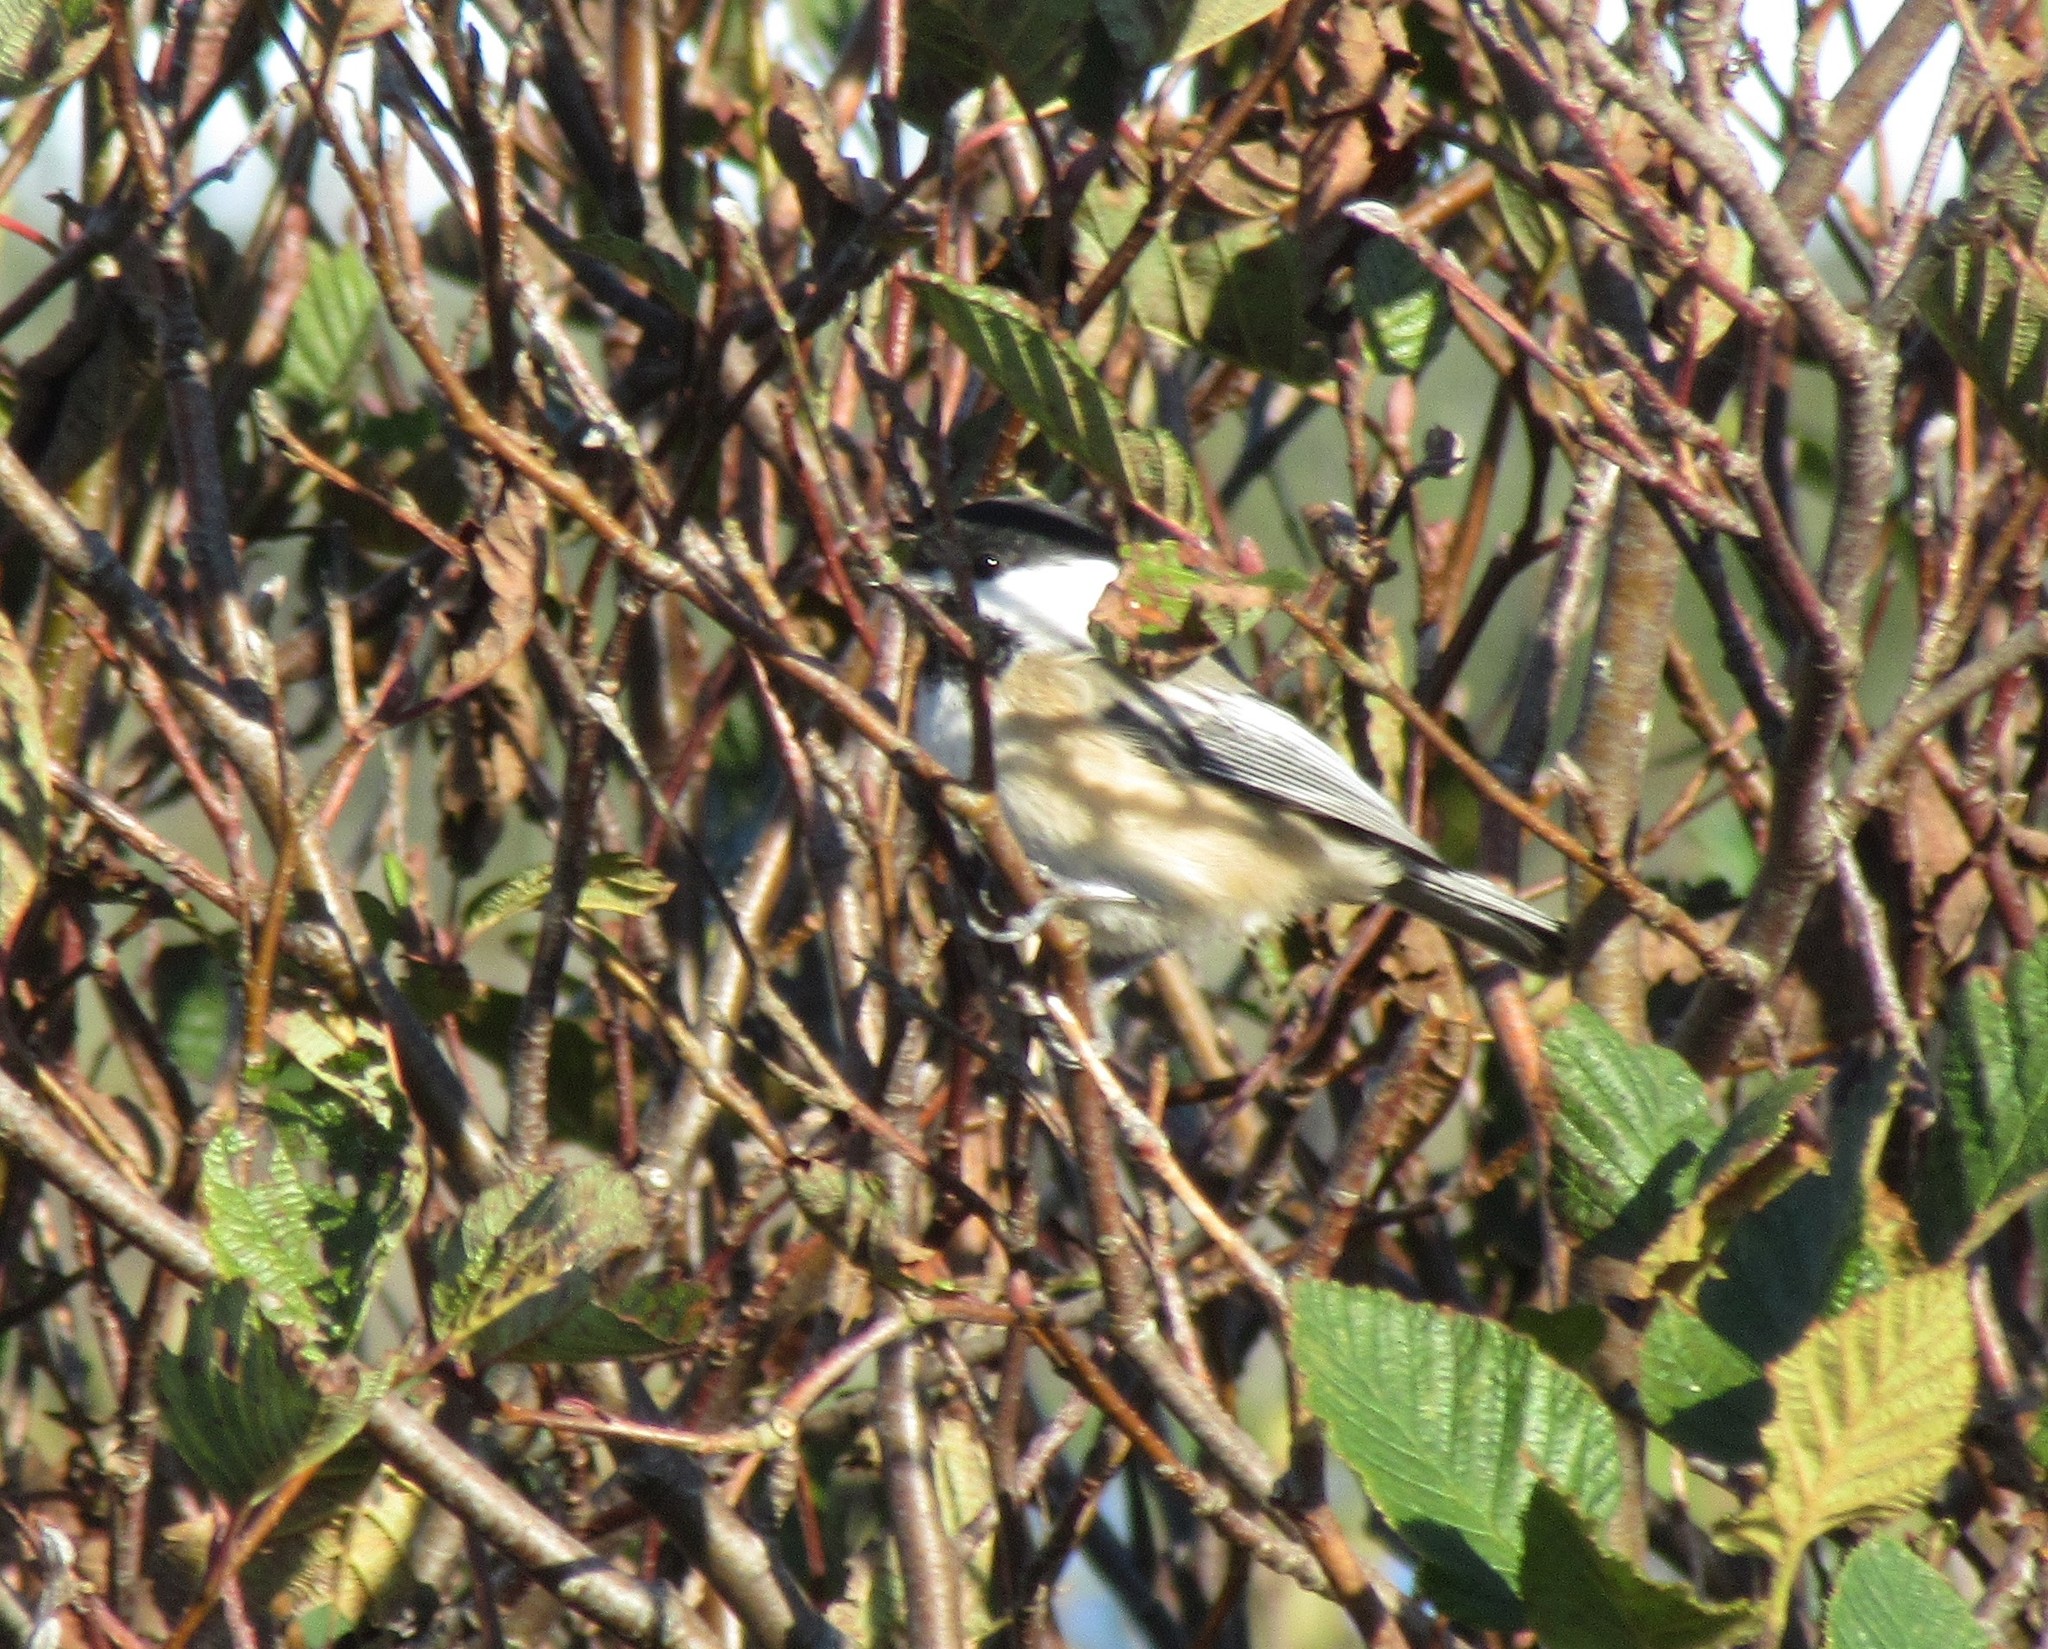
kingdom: Animalia
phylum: Chordata
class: Aves
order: Passeriformes
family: Paridae
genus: Poecile
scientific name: Poecile atricapillus
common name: Black-capped chickadee
